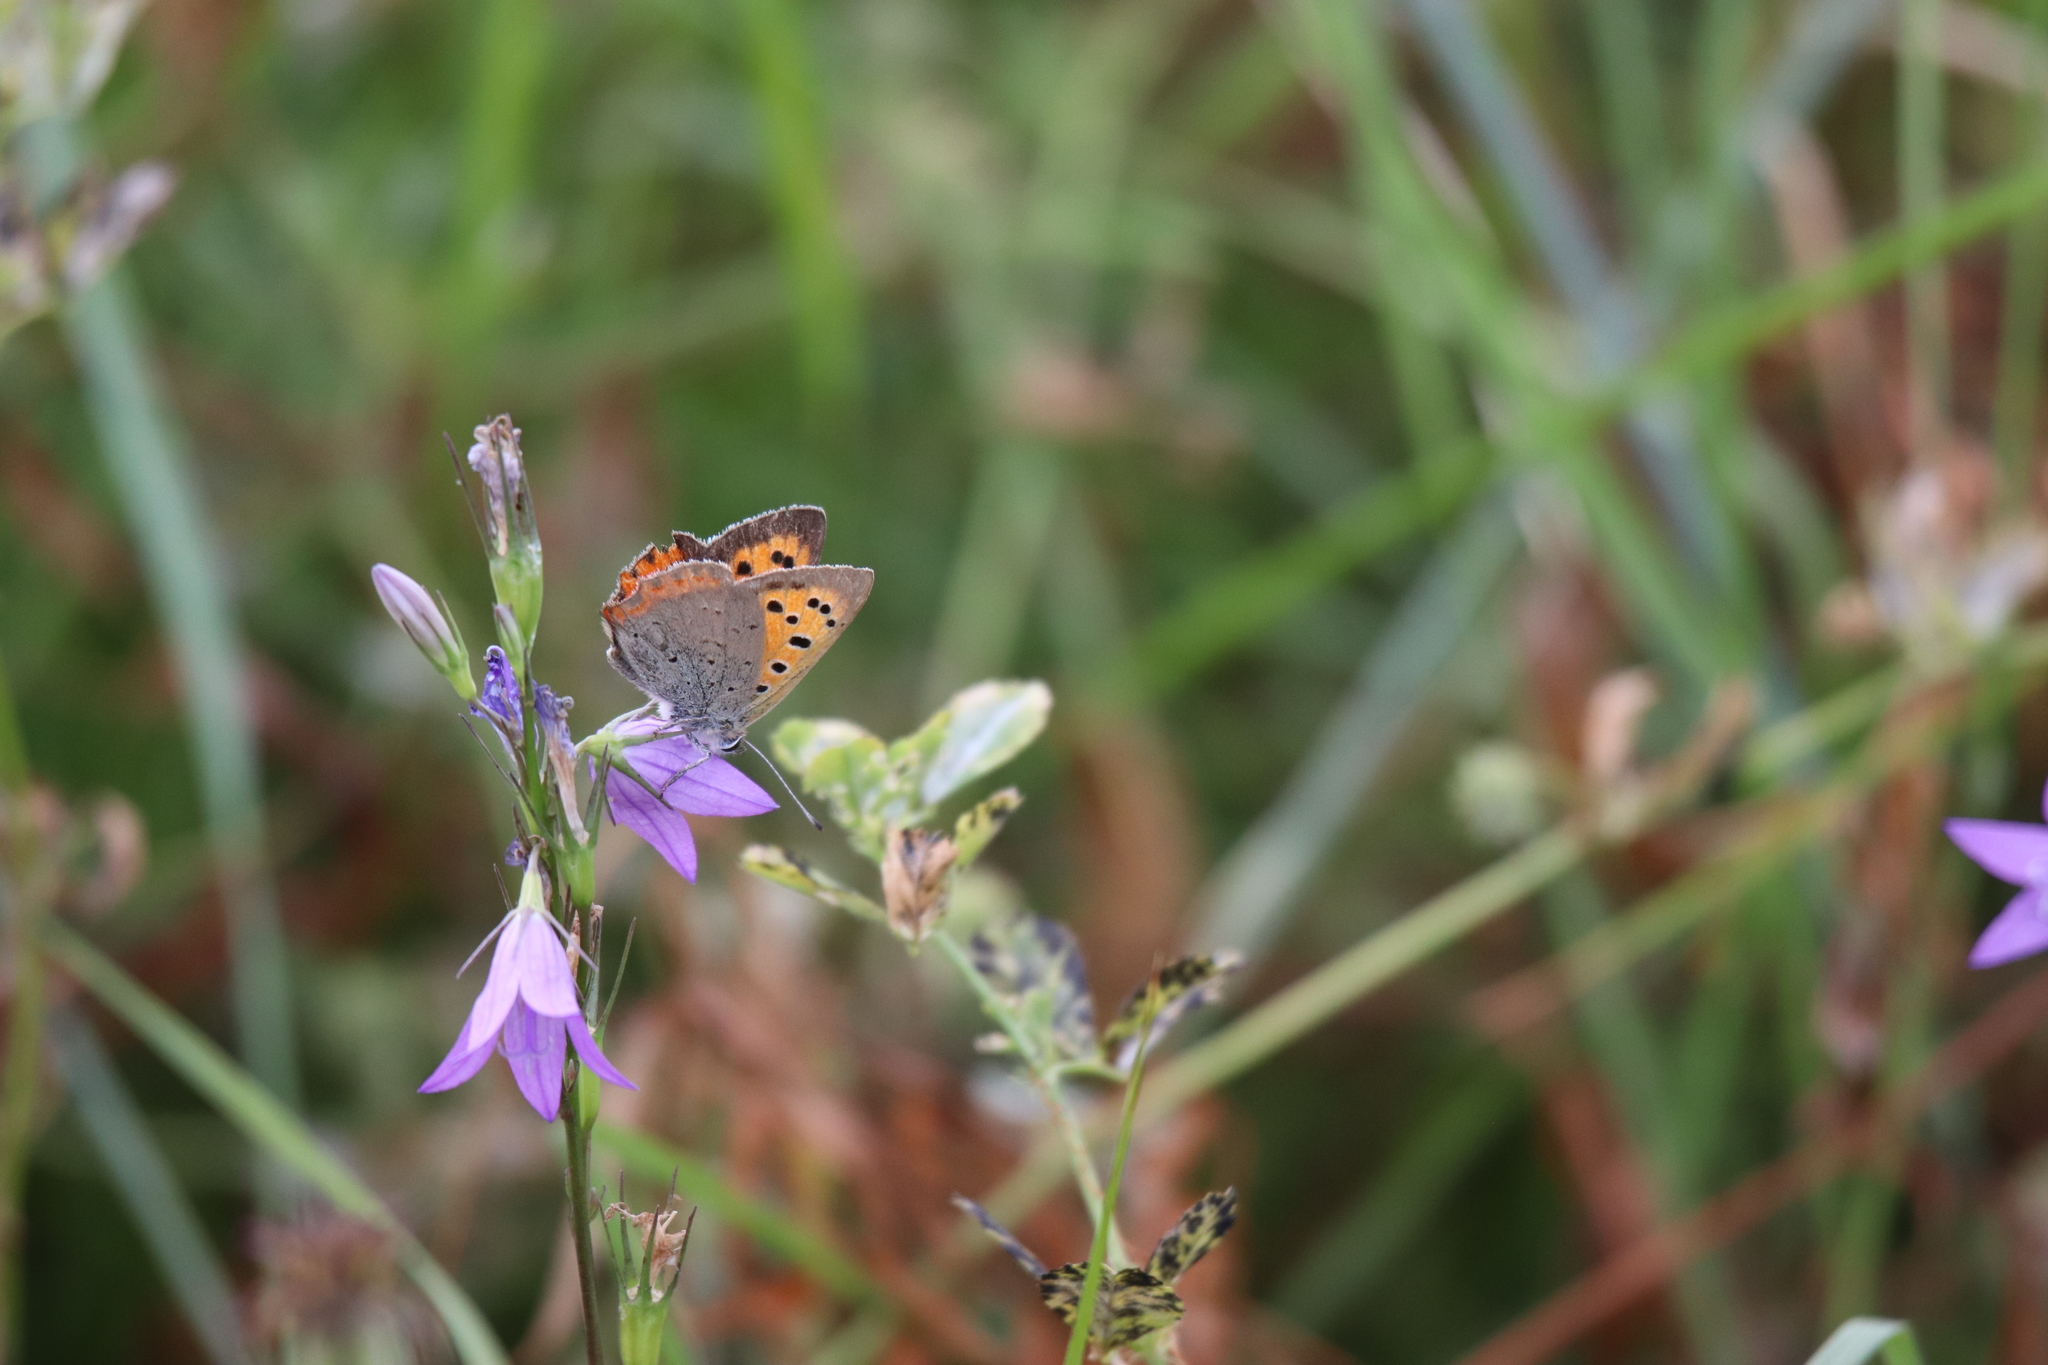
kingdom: Animalia
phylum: Arthropoda
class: Insecta
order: Lepidoptera
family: Lycaenidae
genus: Lycaena
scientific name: Lycaena phlaeas
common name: Small copper
